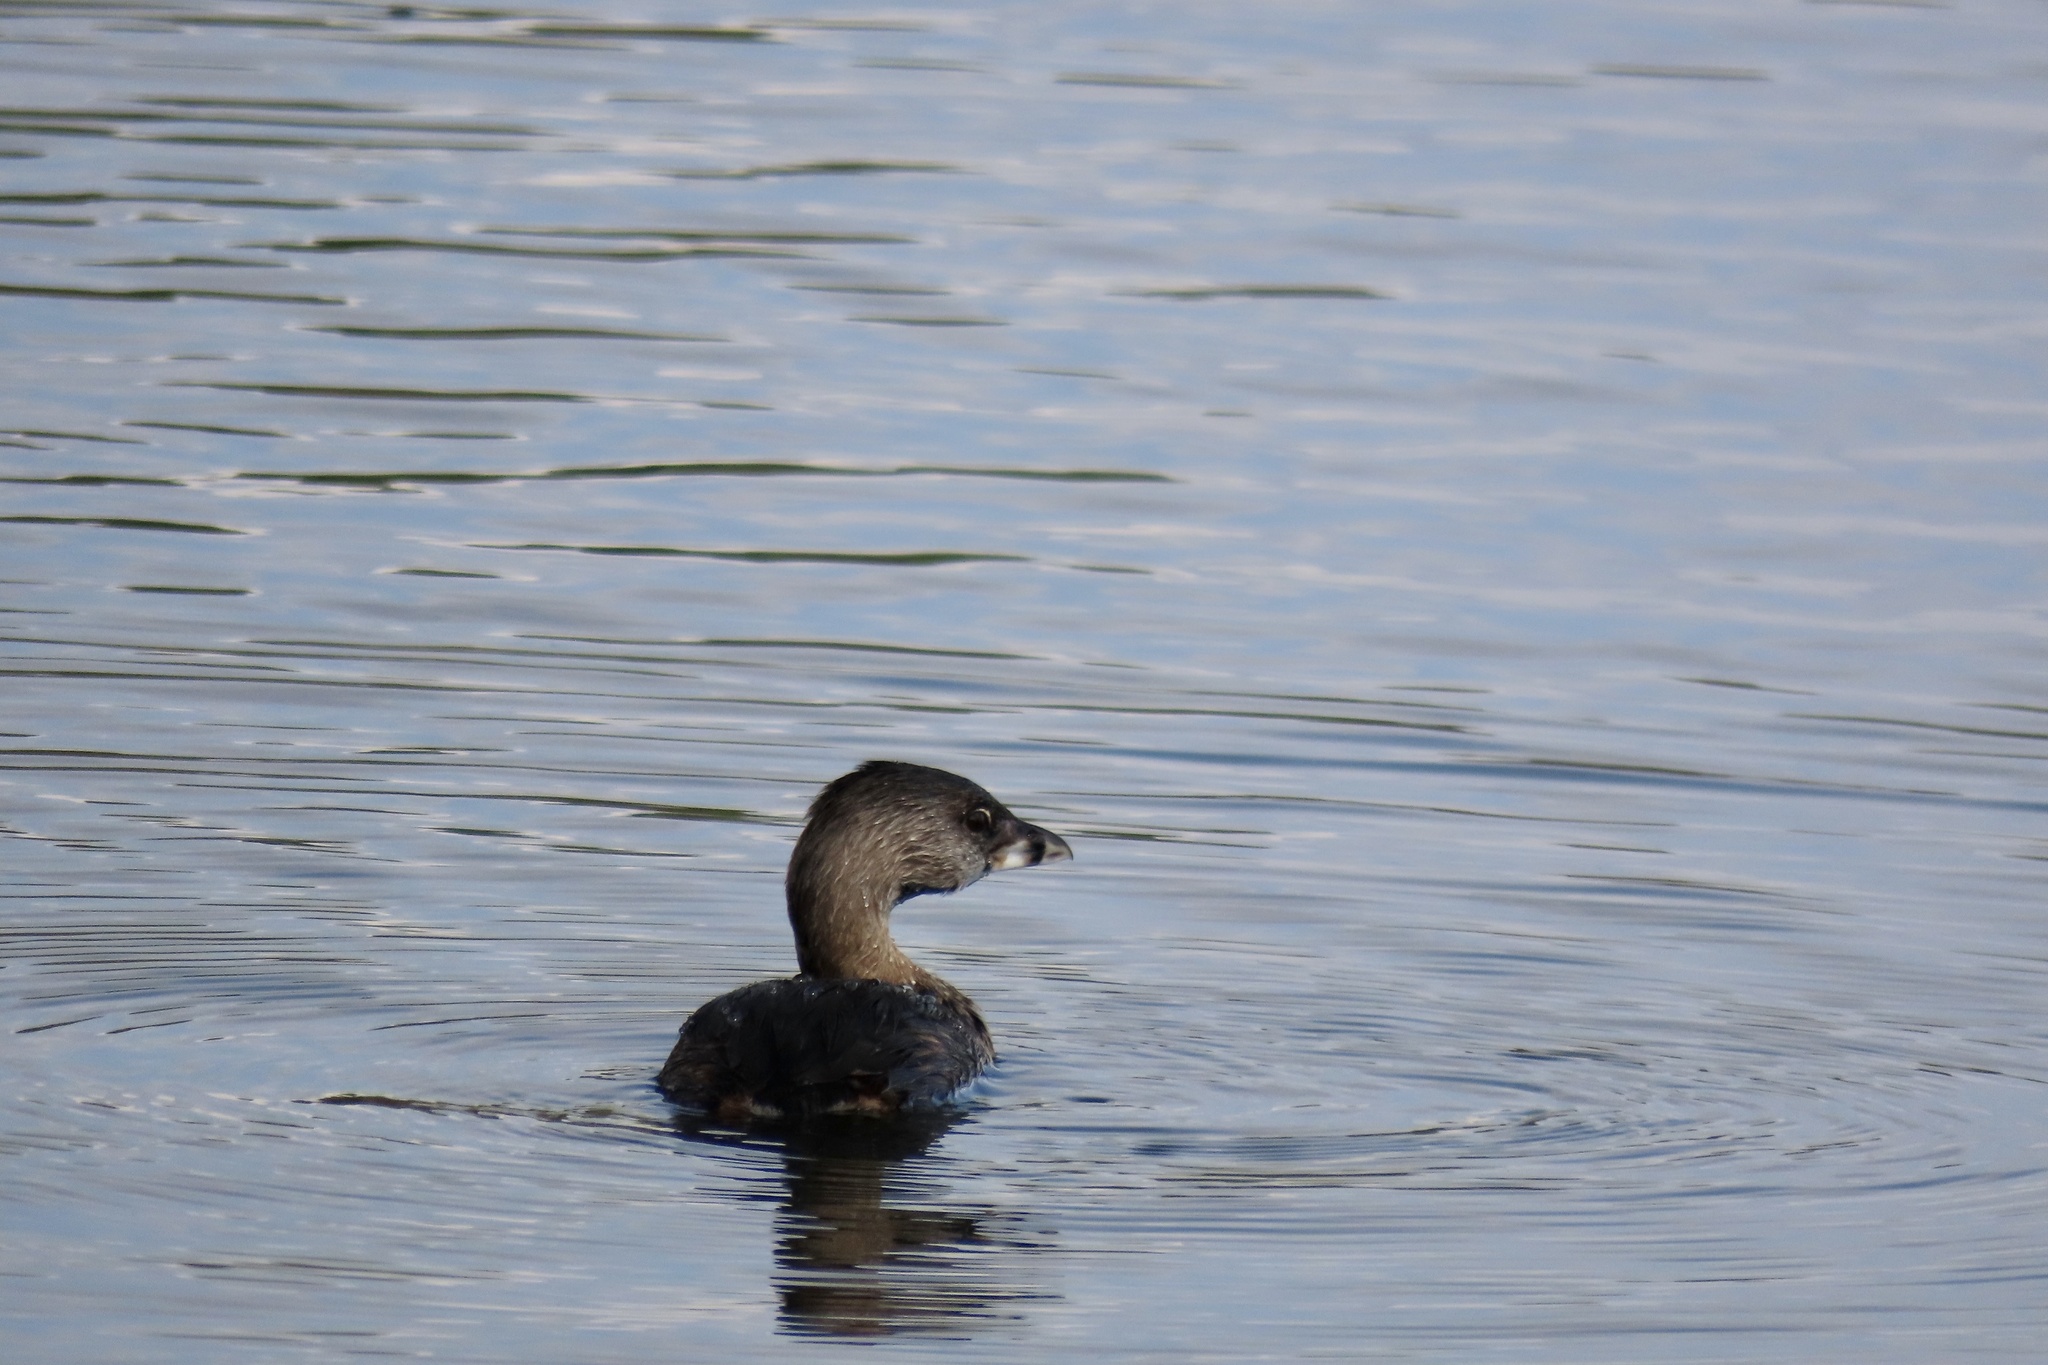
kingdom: Animalia
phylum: Chordata
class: Aves
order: Podicipediformes
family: Podicipedidae
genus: Podilymbus
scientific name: Podilymbus podiceps
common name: Pied-billed grebe
